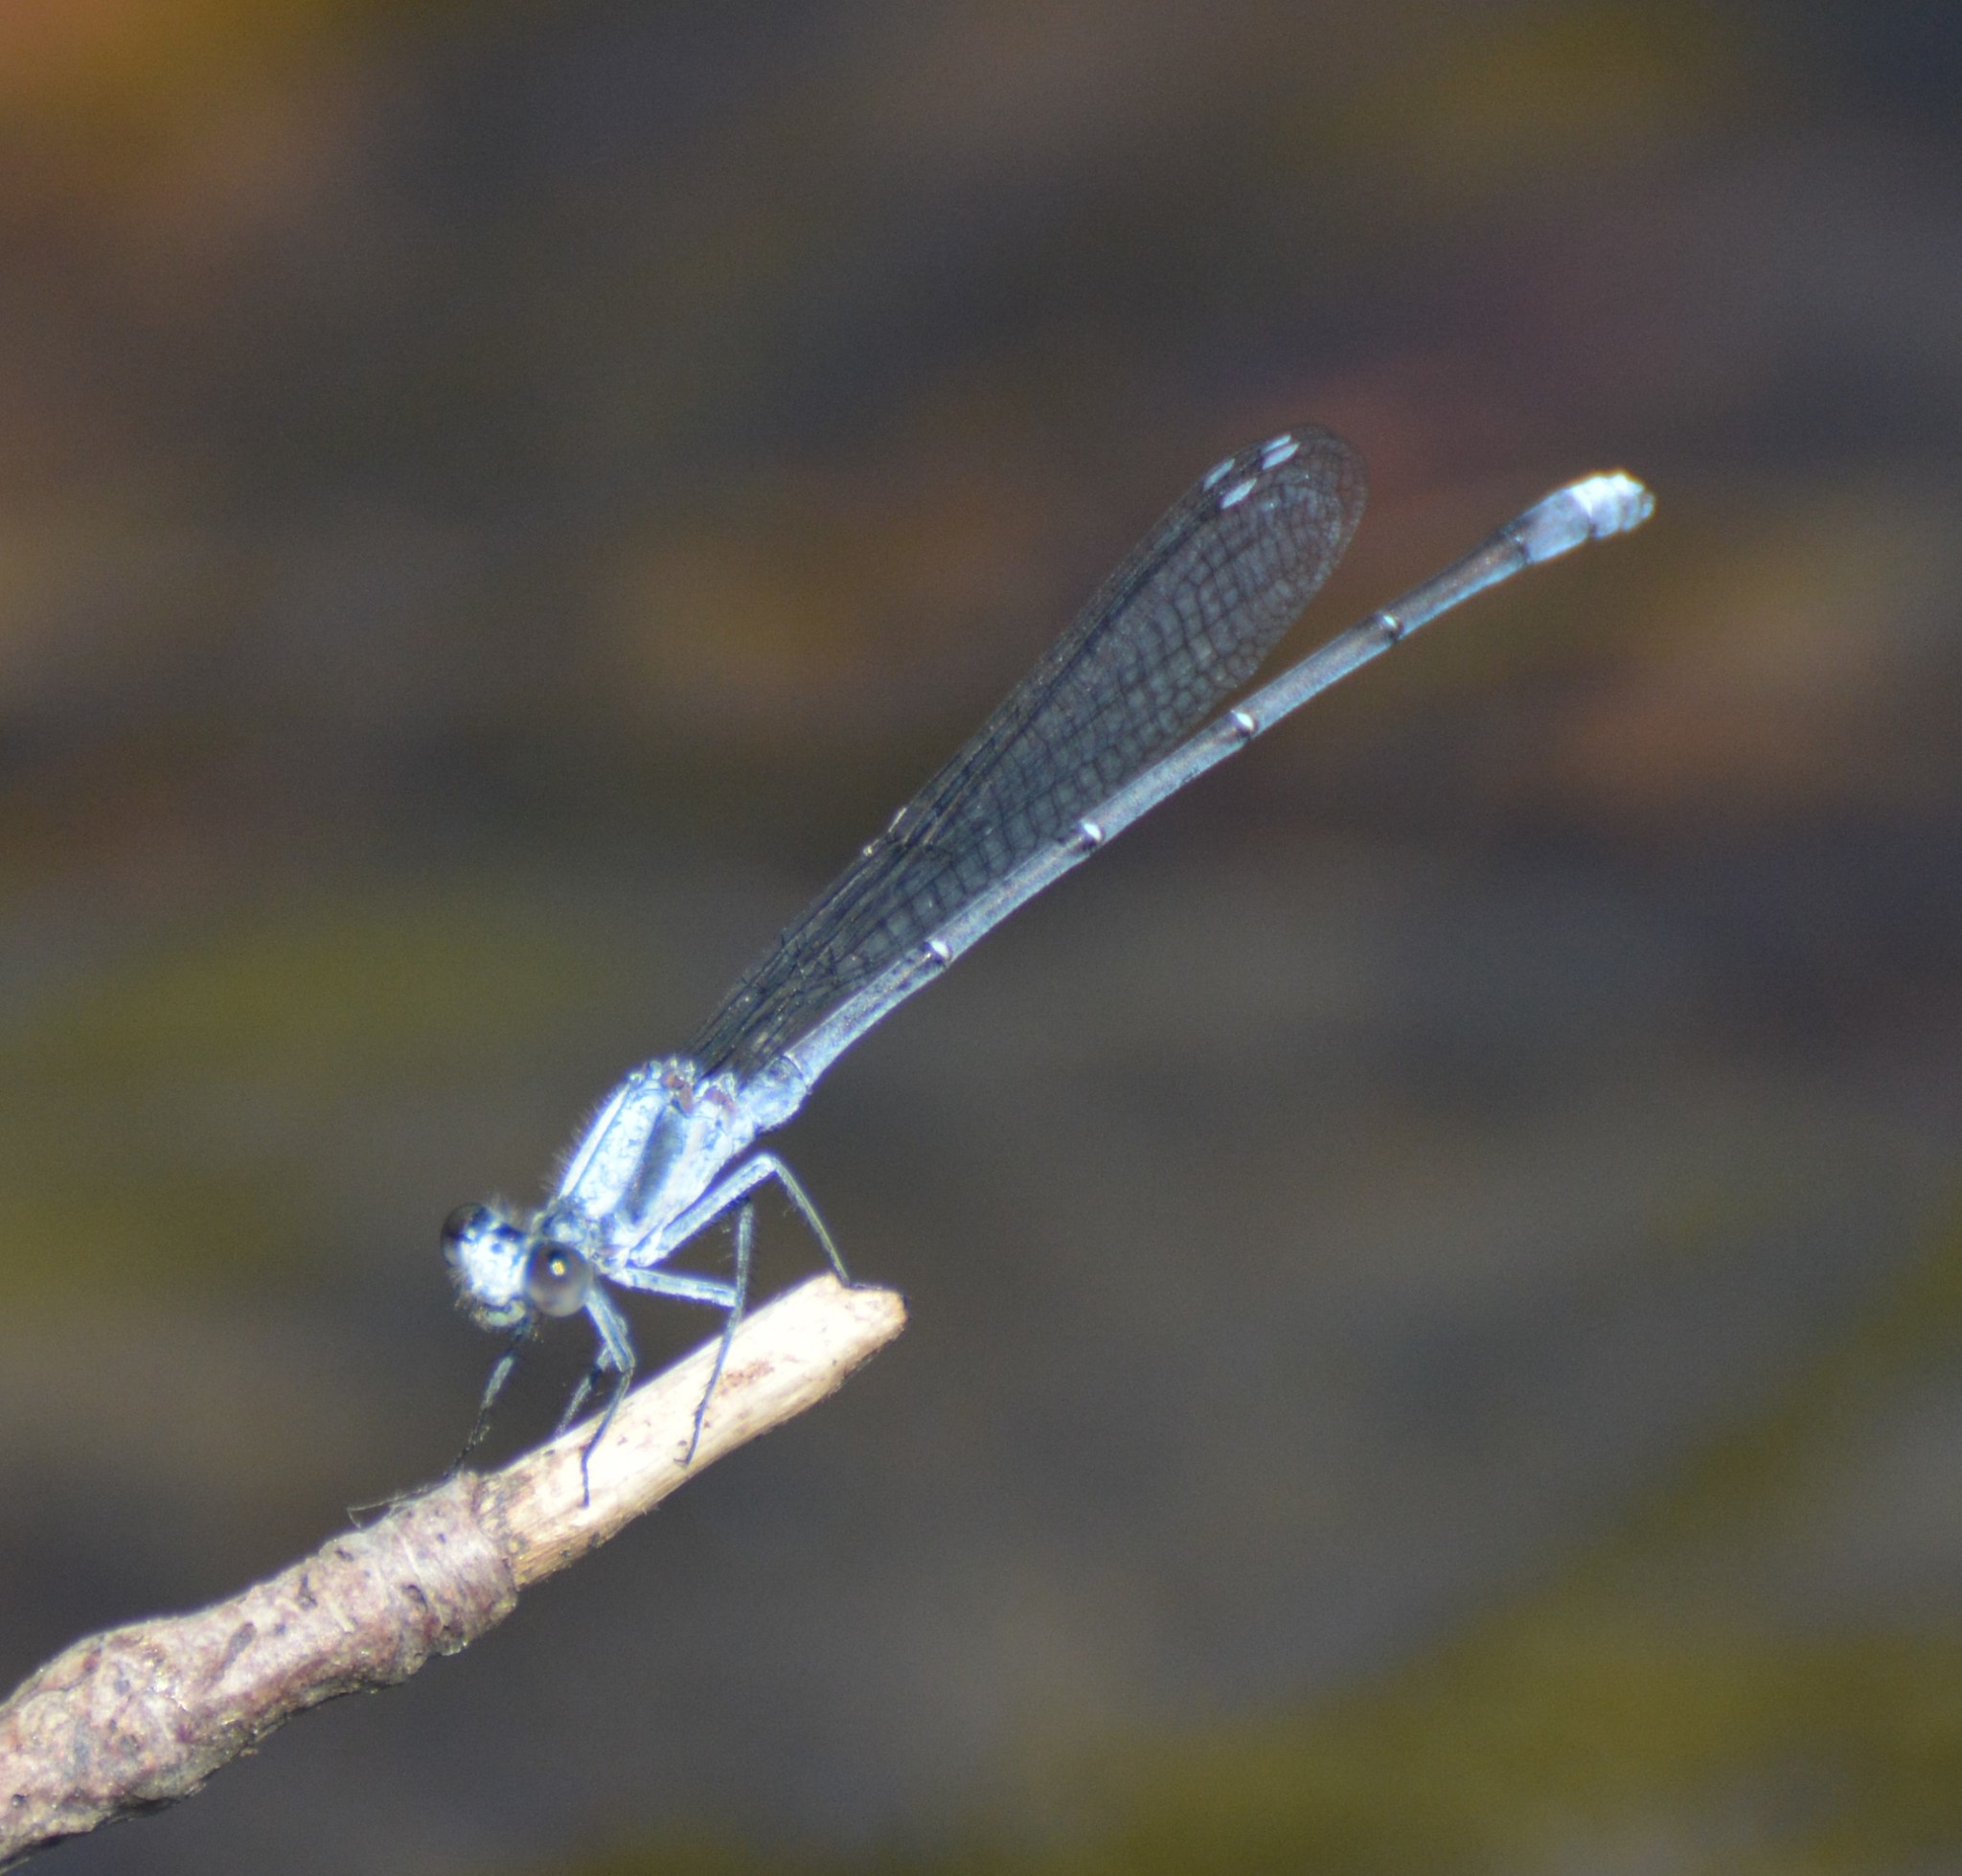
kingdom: Animalia
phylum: Arthropoda
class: Insecta
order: Odonata
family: Coenagrionidae
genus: Argia
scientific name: Argia moesta
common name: Powdered dancer
